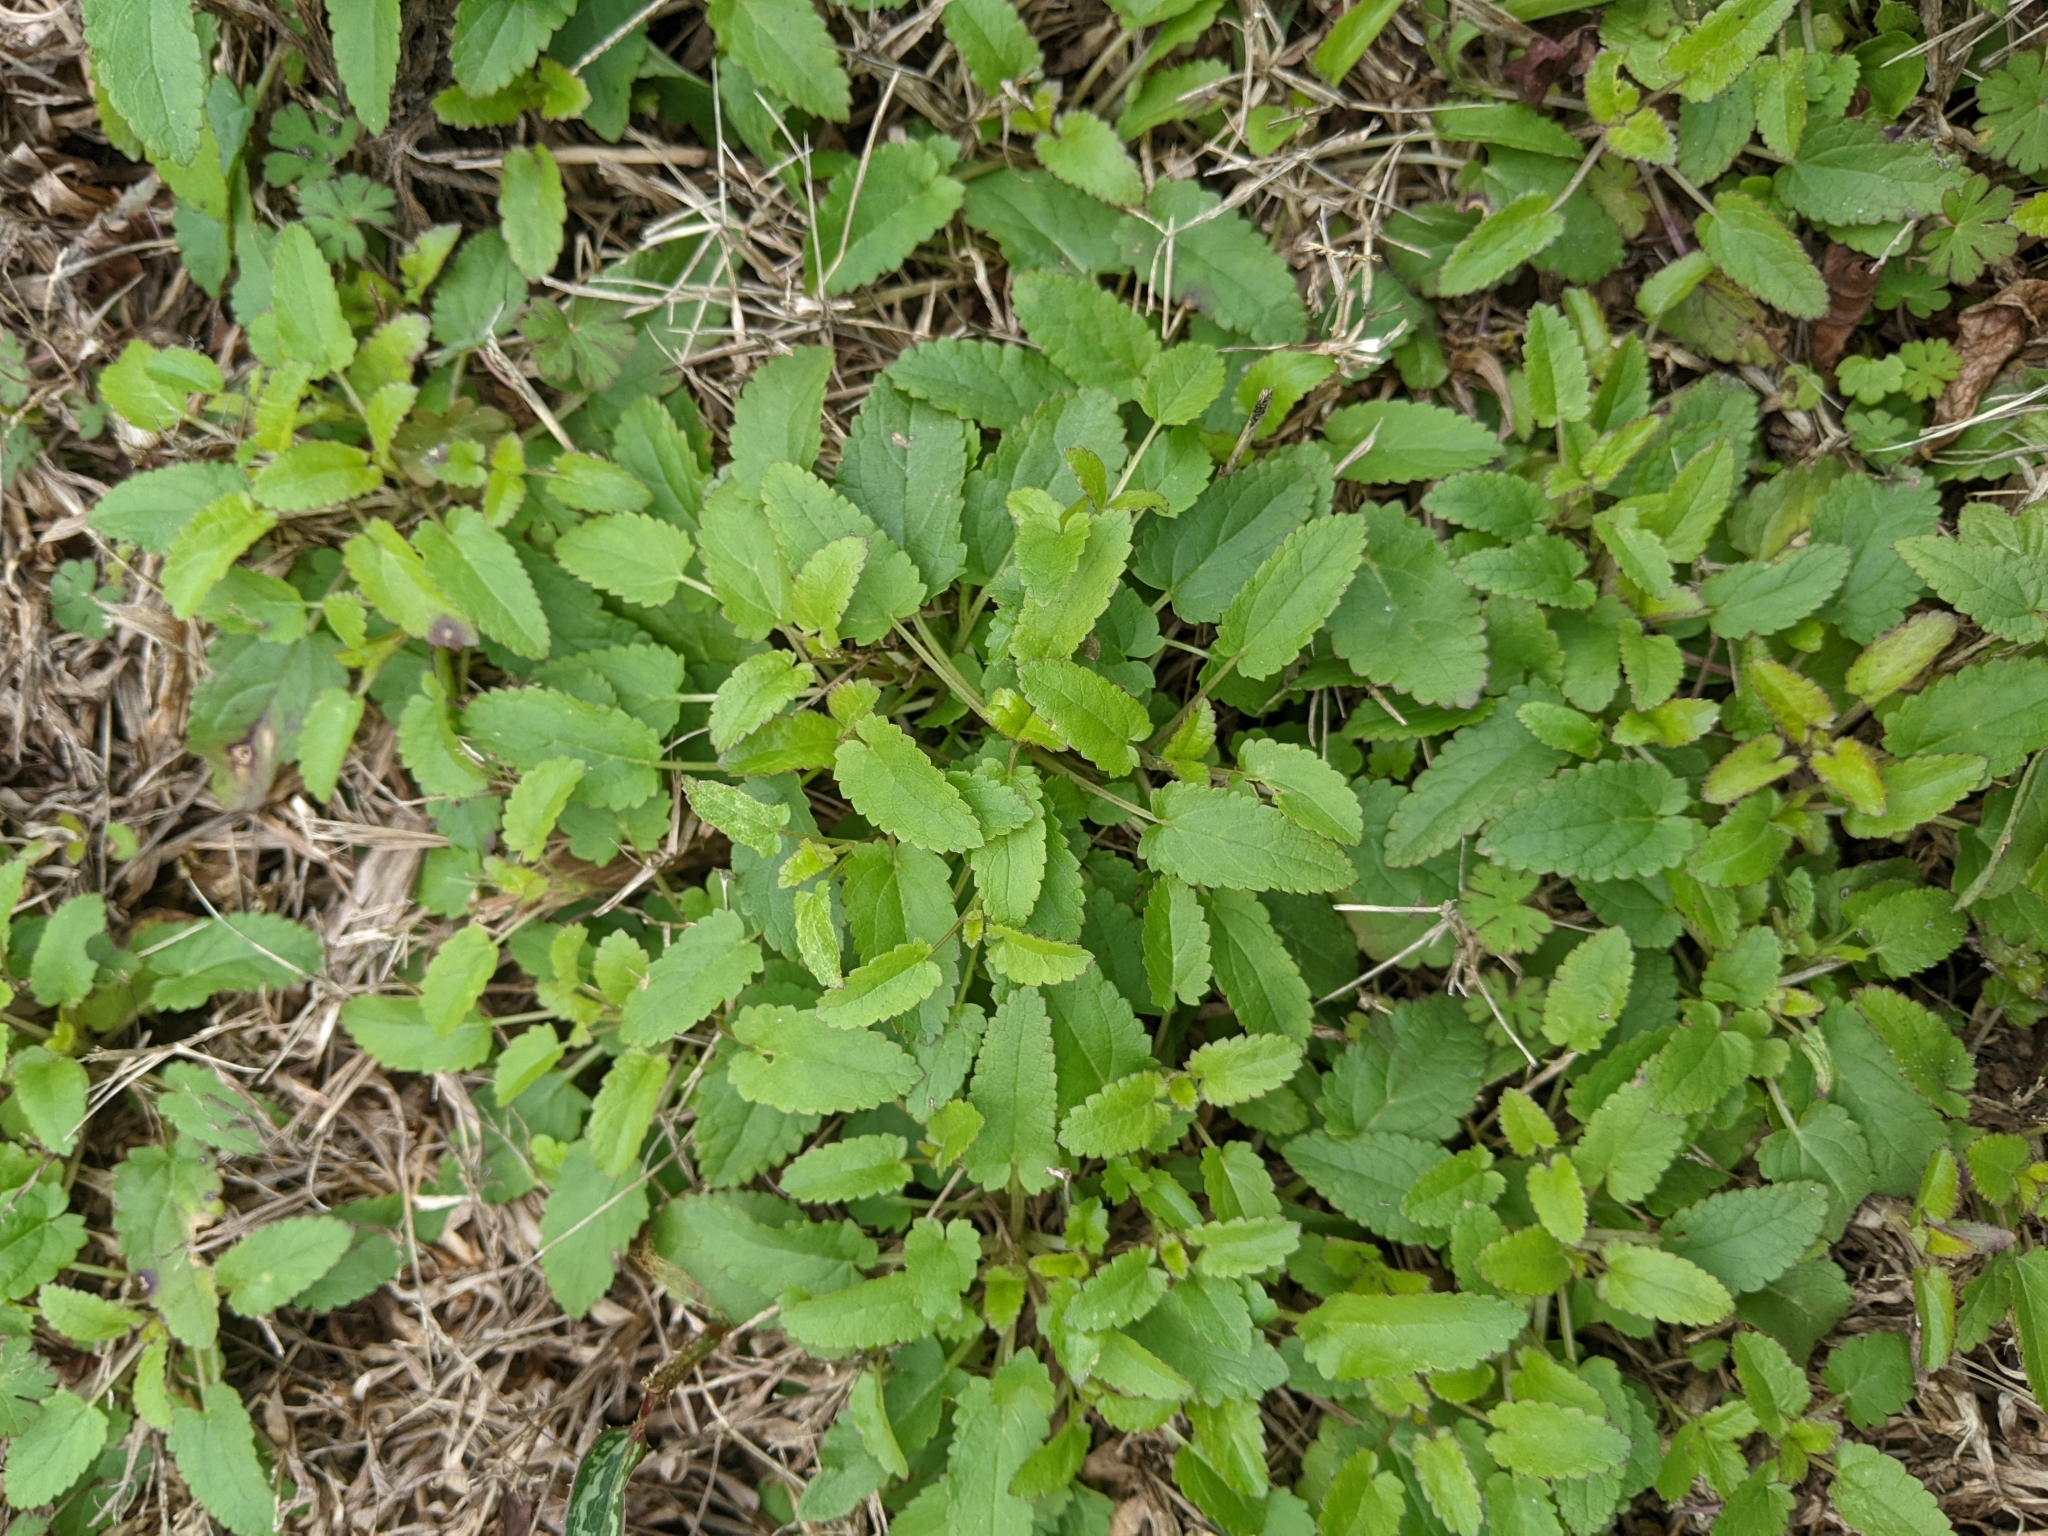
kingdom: Plantae
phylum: Tracheophyta
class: Magnoliopsida
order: Lamiales
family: Lamiaceae
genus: Stachys
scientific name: Stachys floridana
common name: Florida betony
